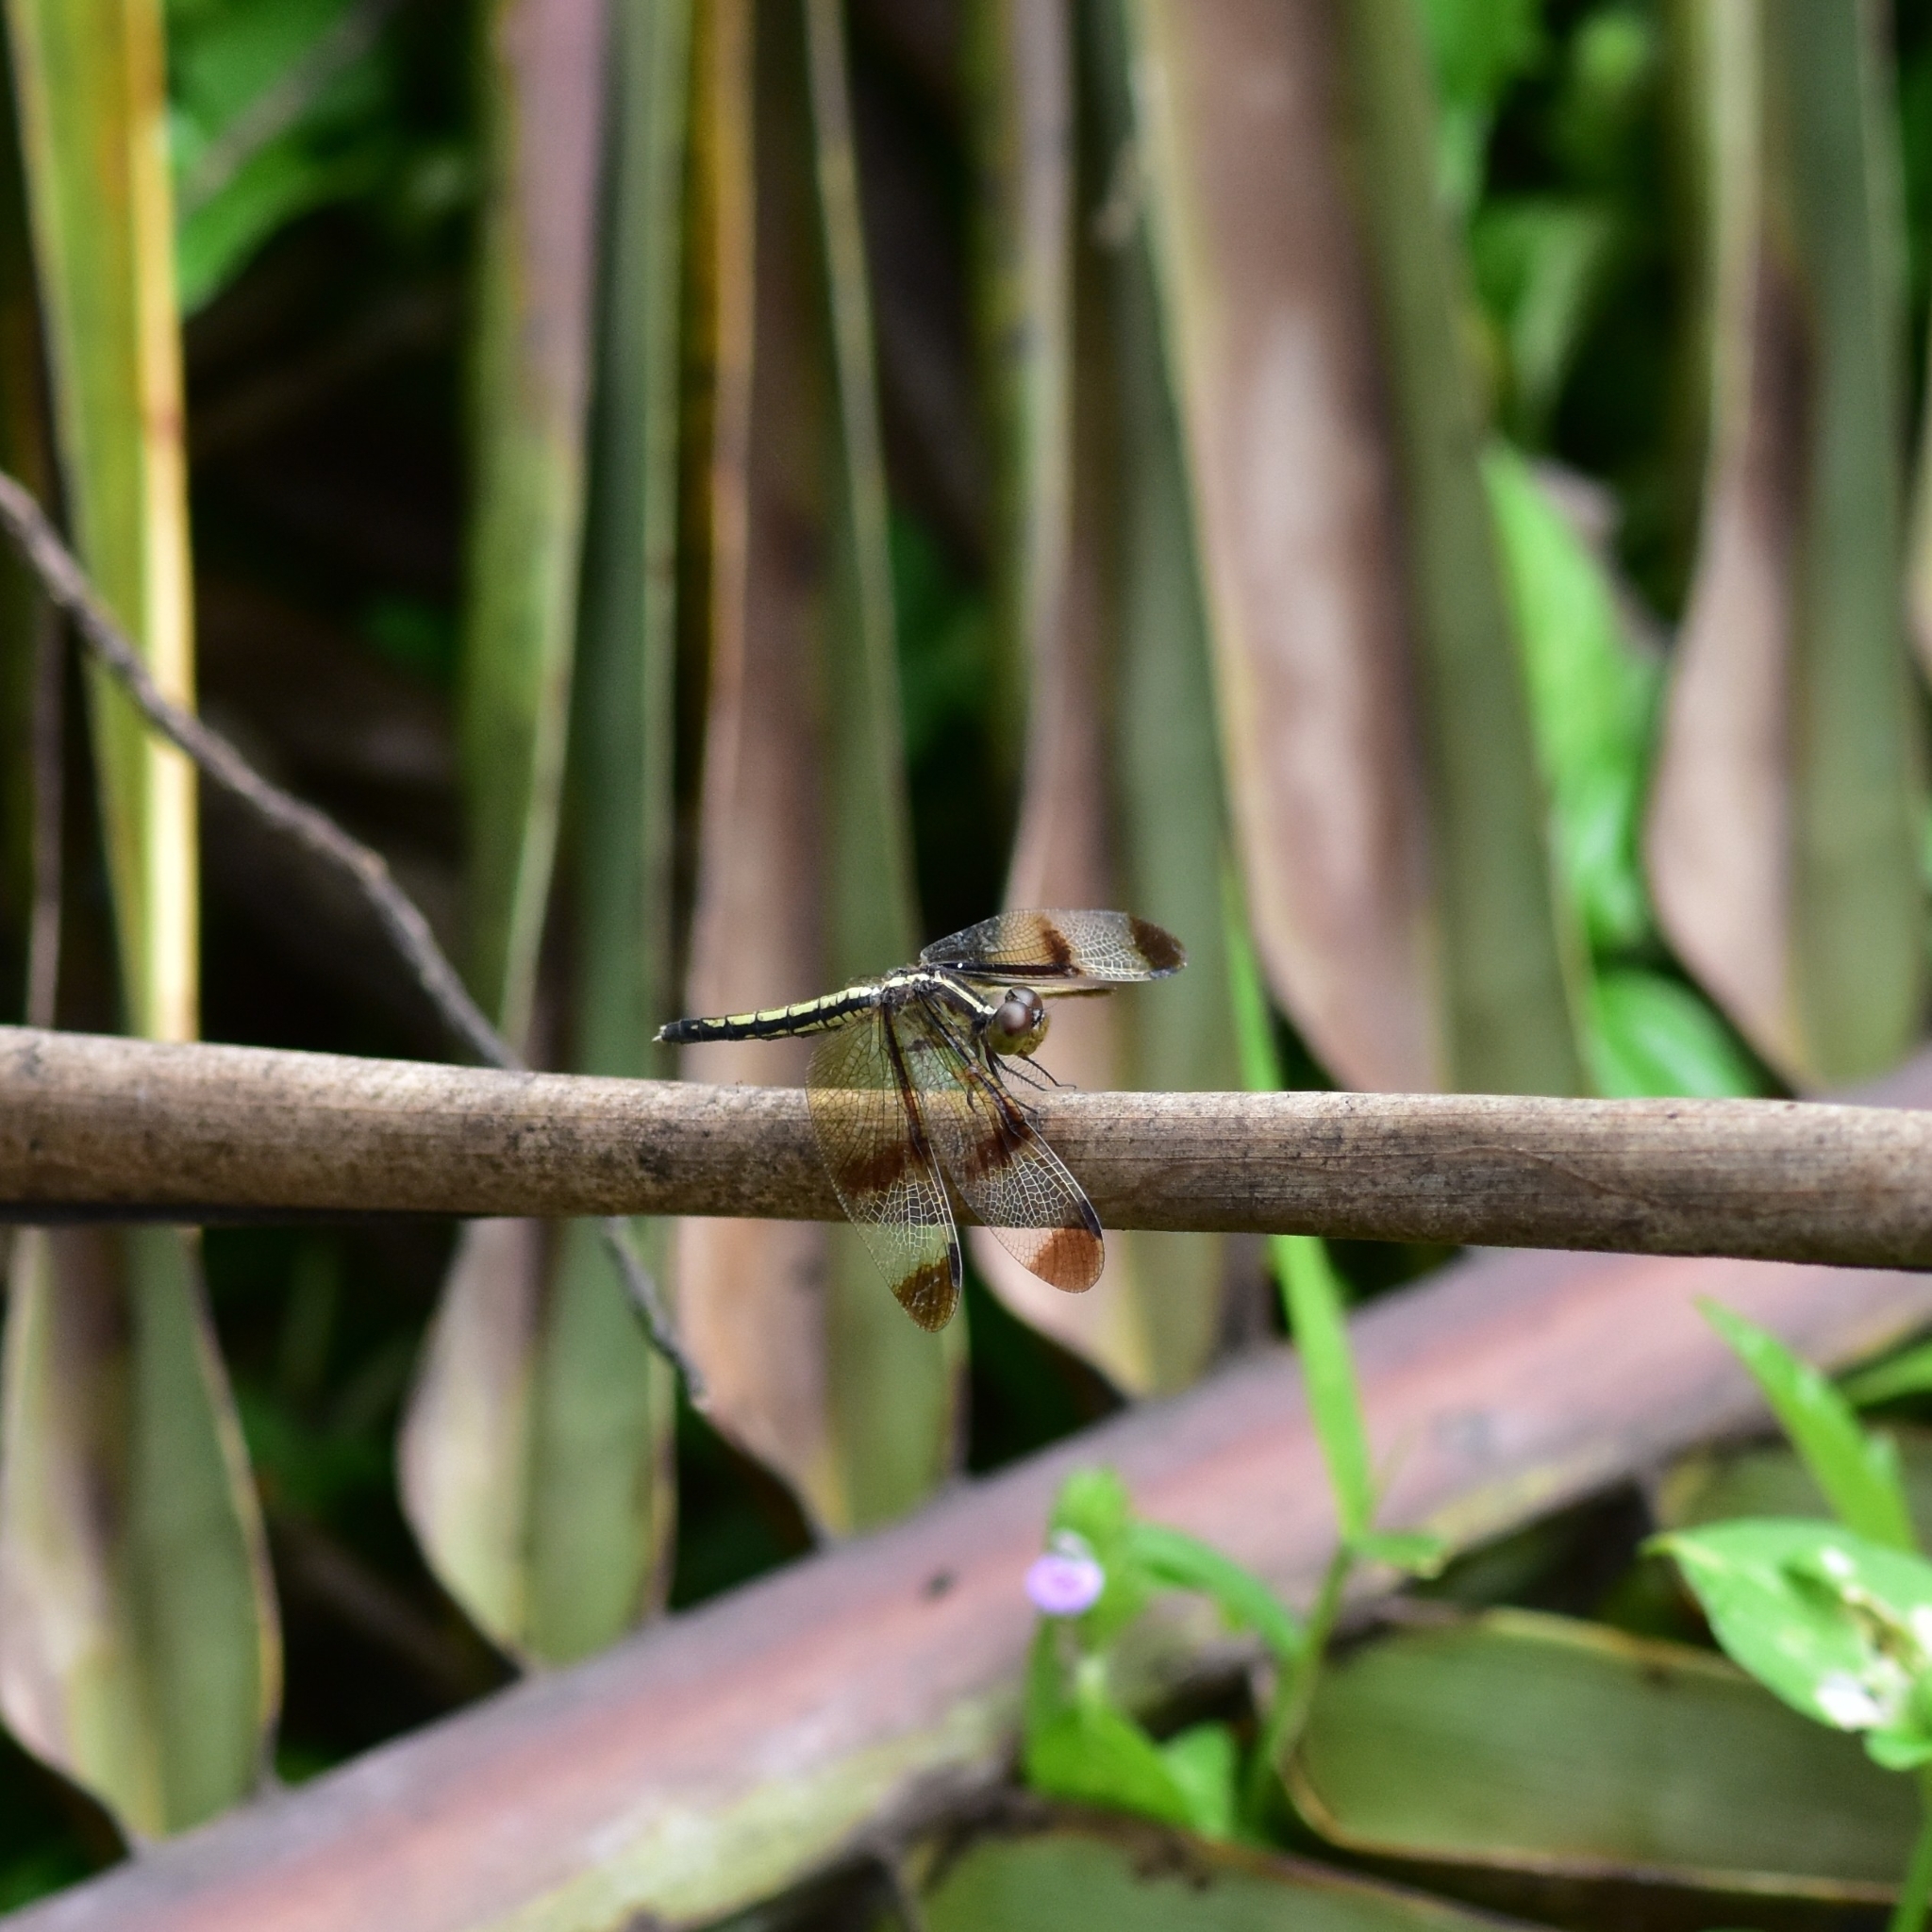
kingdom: Animalia
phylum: Arthropoda
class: Insecta
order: Odonata
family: Libellulidae
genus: Neurothemis
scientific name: Neurothemis tullia
